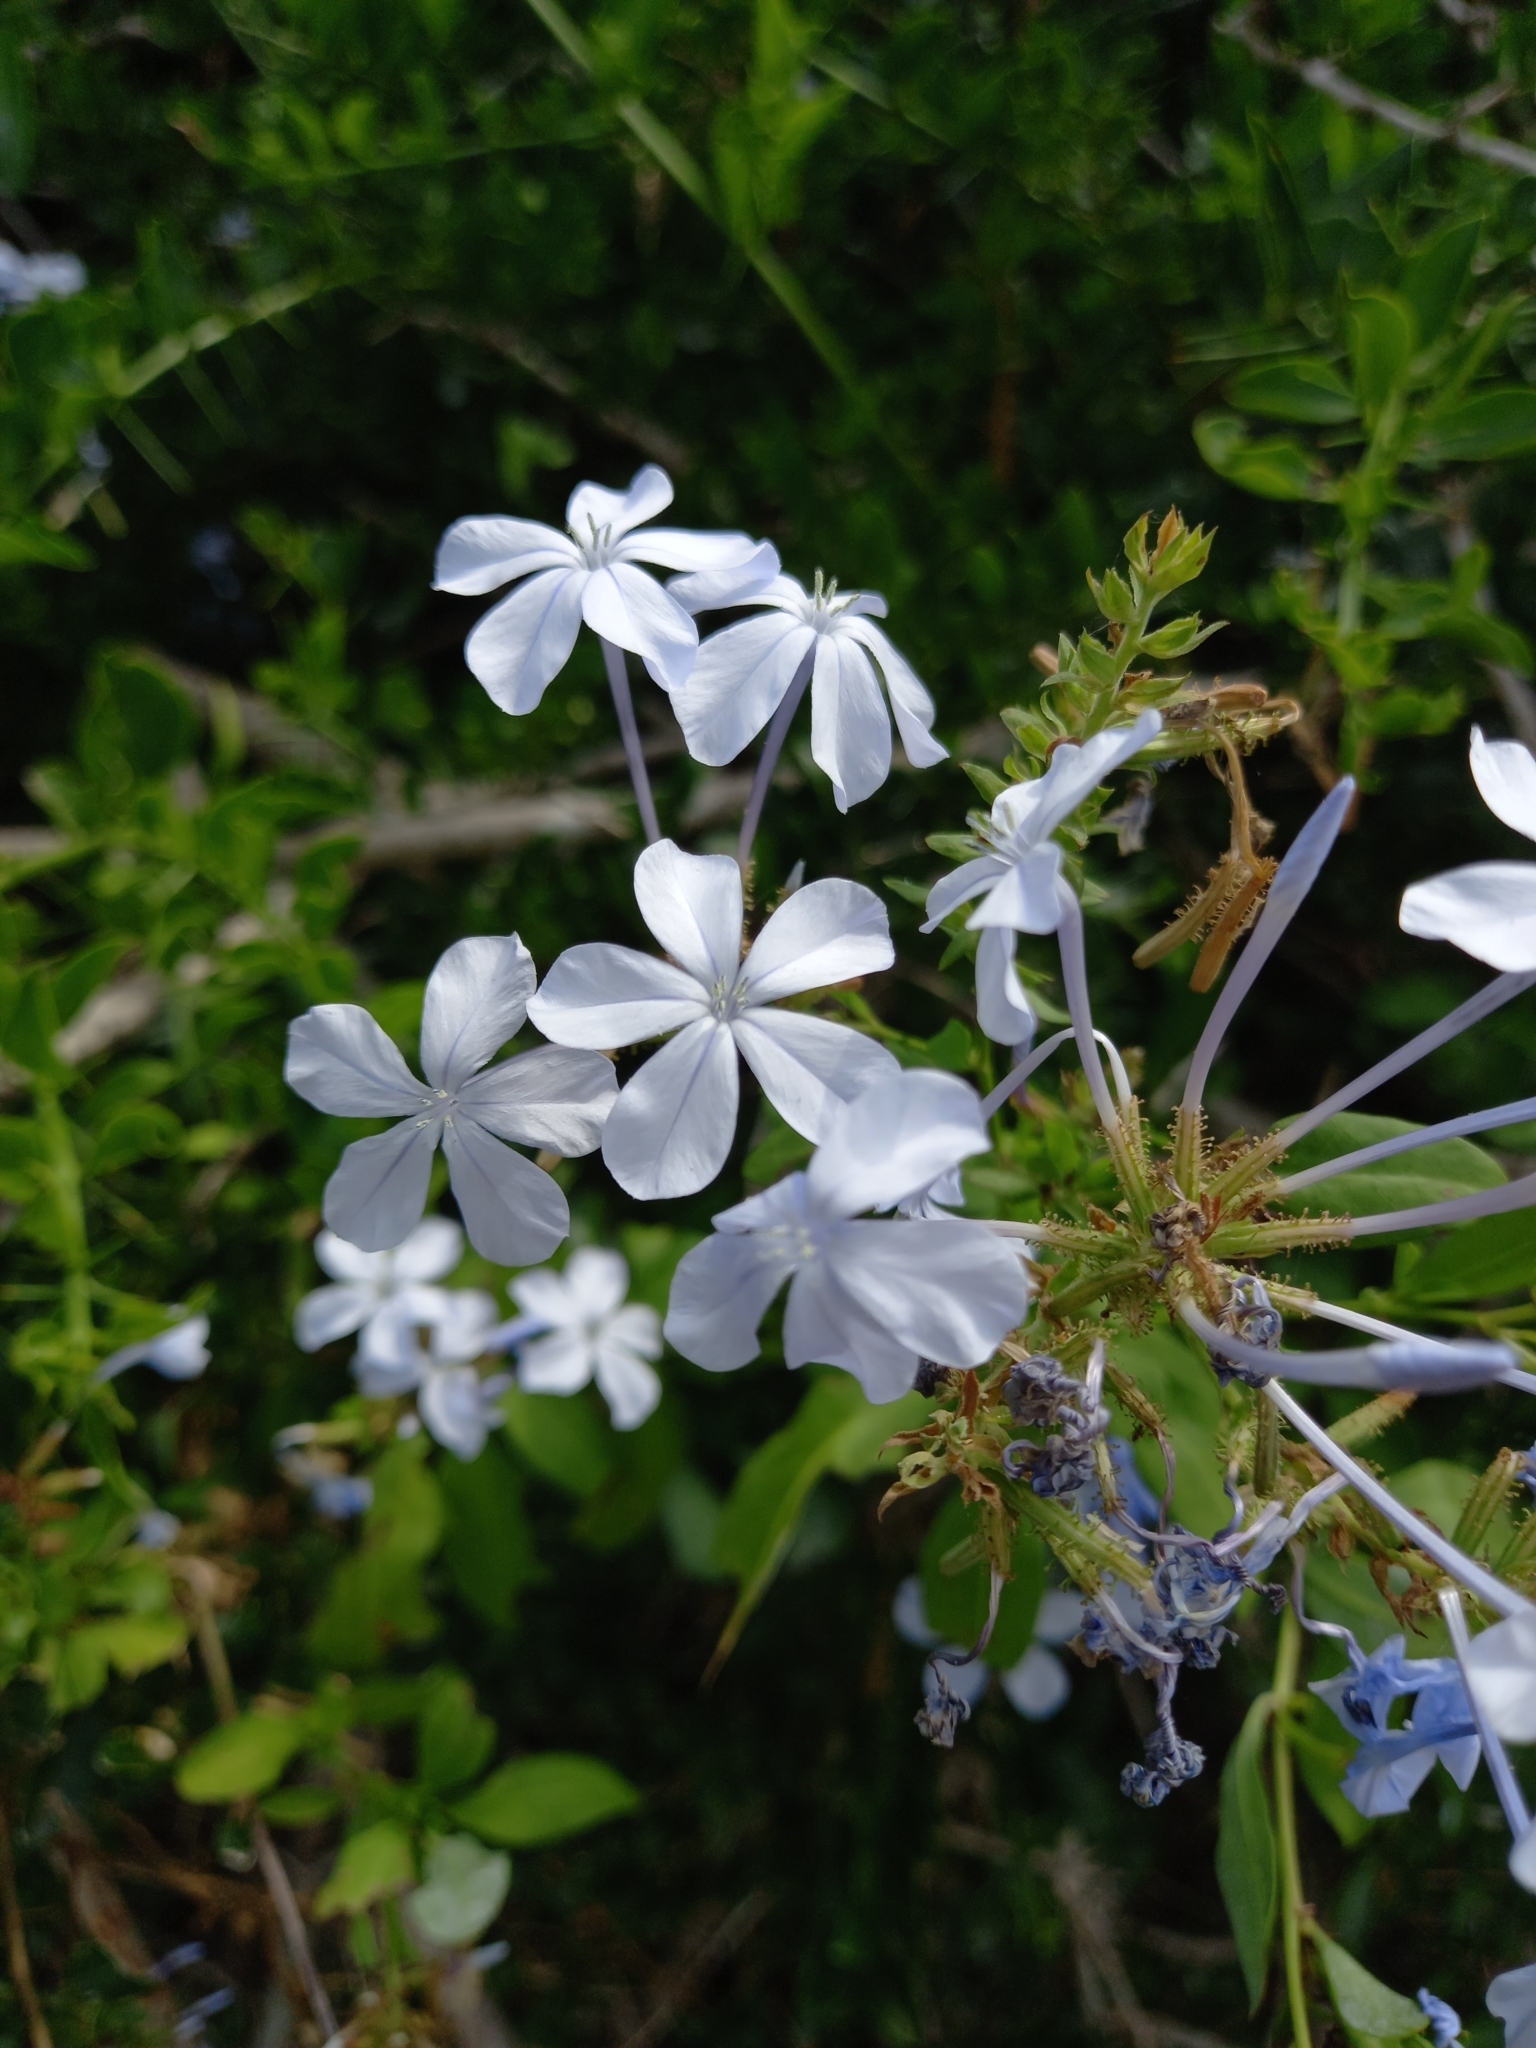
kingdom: Plantae
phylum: Tracheophyta
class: Magnoliopsida
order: Caryophyllales
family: Plumbaginaceae
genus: Plumbago
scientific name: Plumbago auriculata
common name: Cape leadwort
